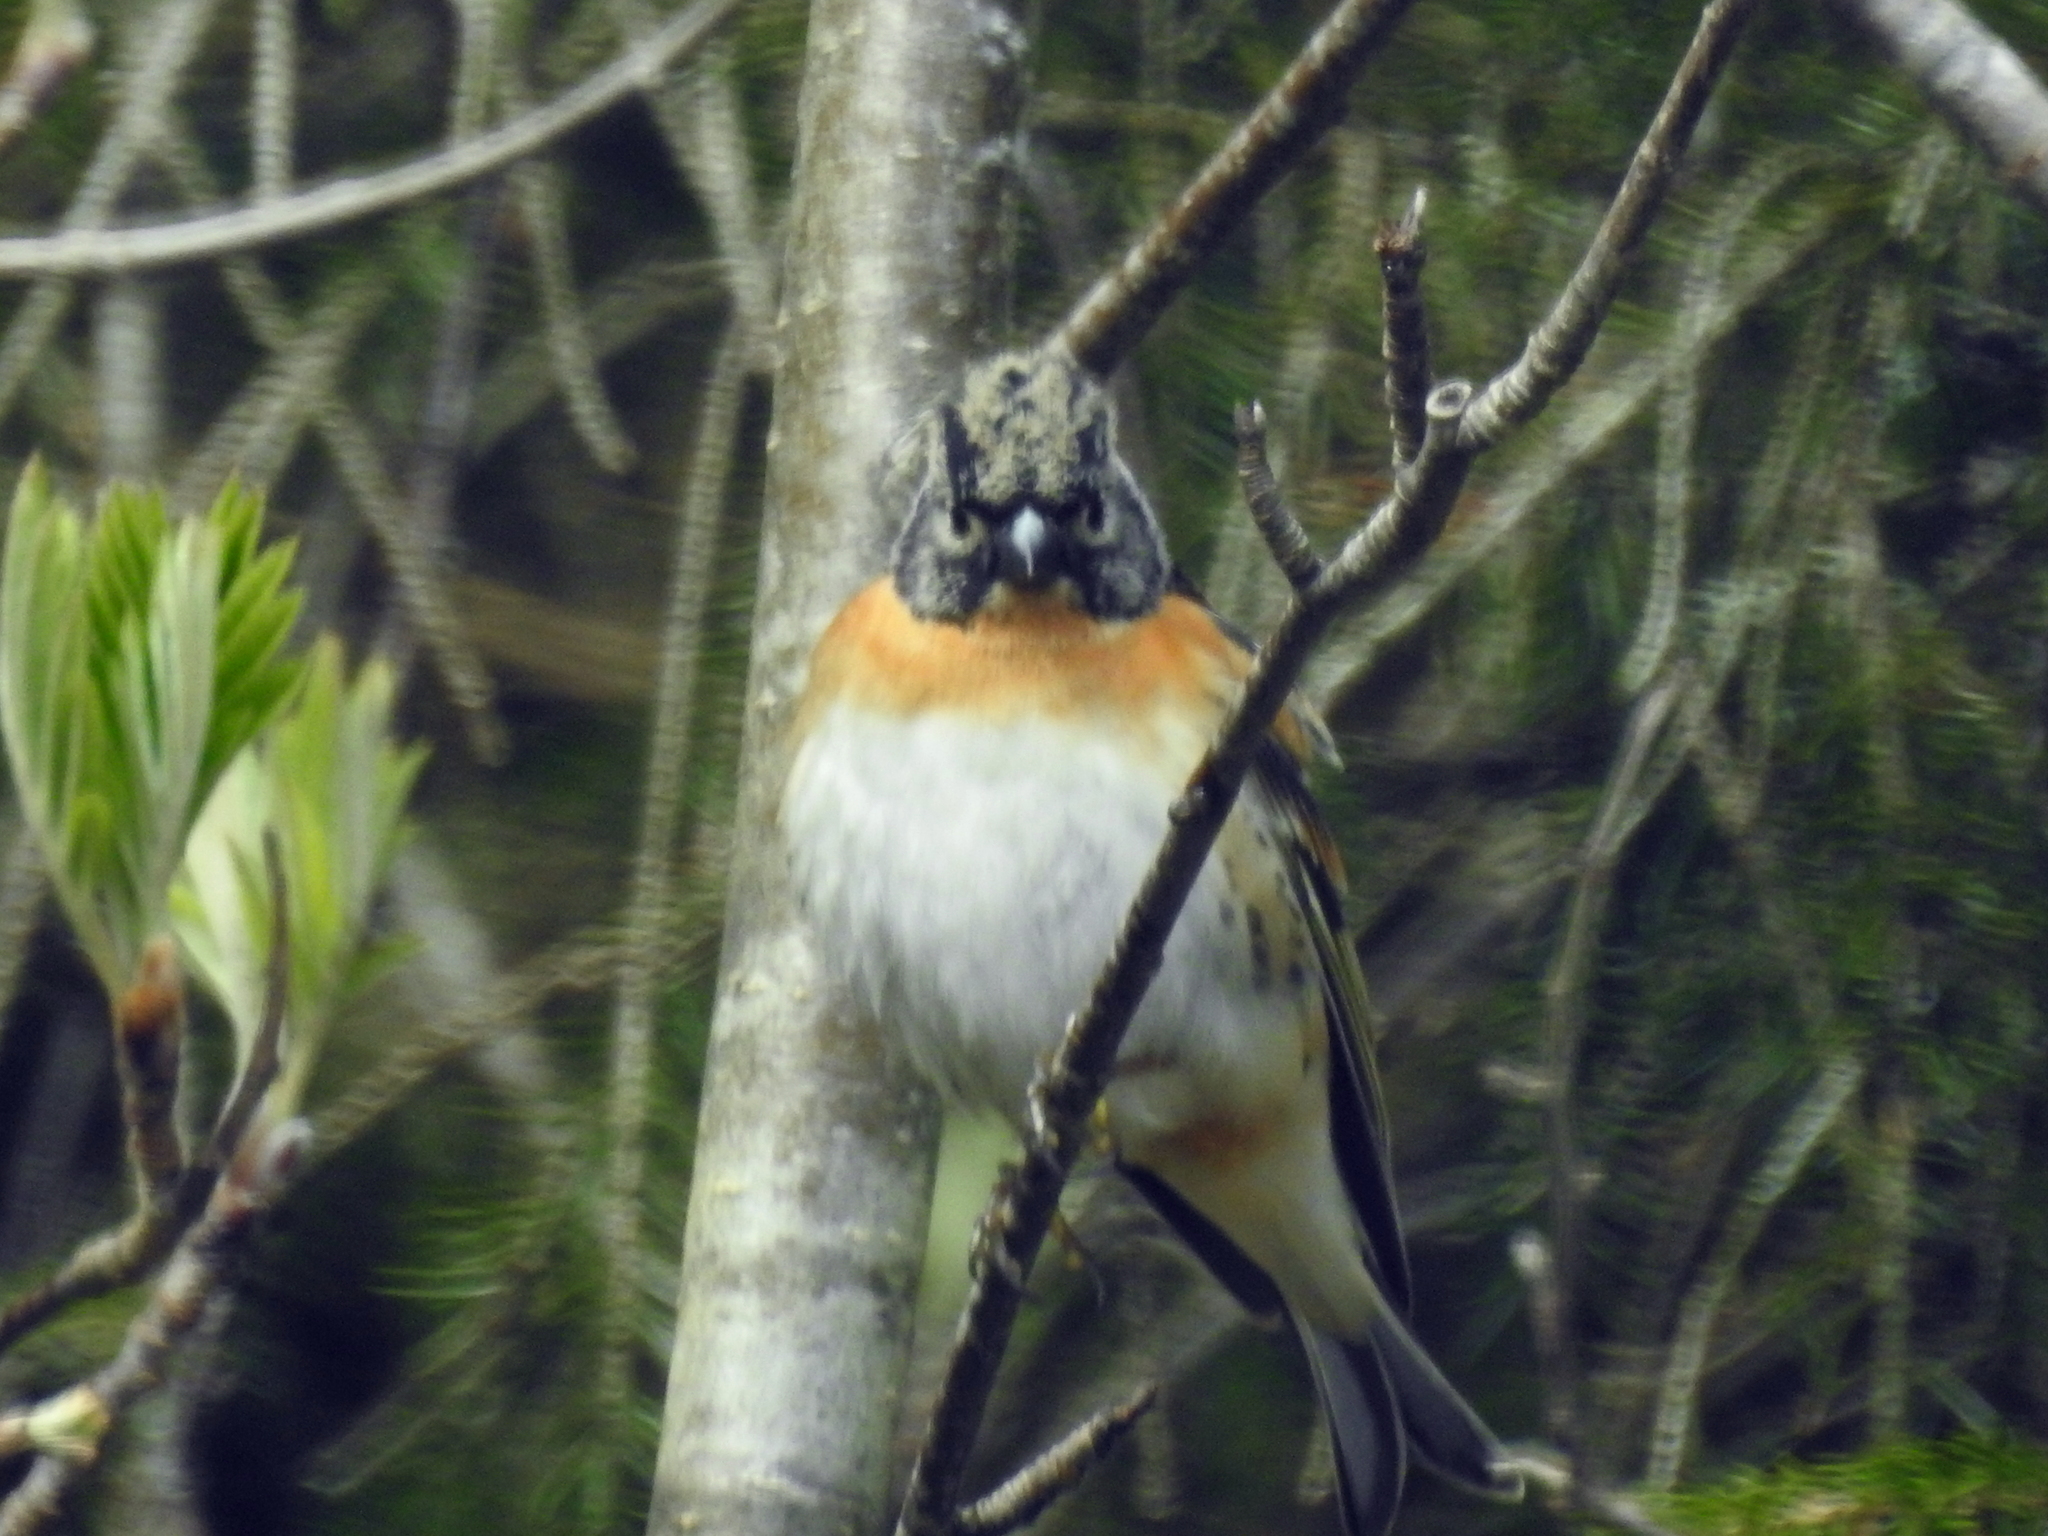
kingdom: Animalia
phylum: Chordata
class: Aves
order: Passeriformes
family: Fringillidae
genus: Fringilla
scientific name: Fringilla montifringilla
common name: Brambling
